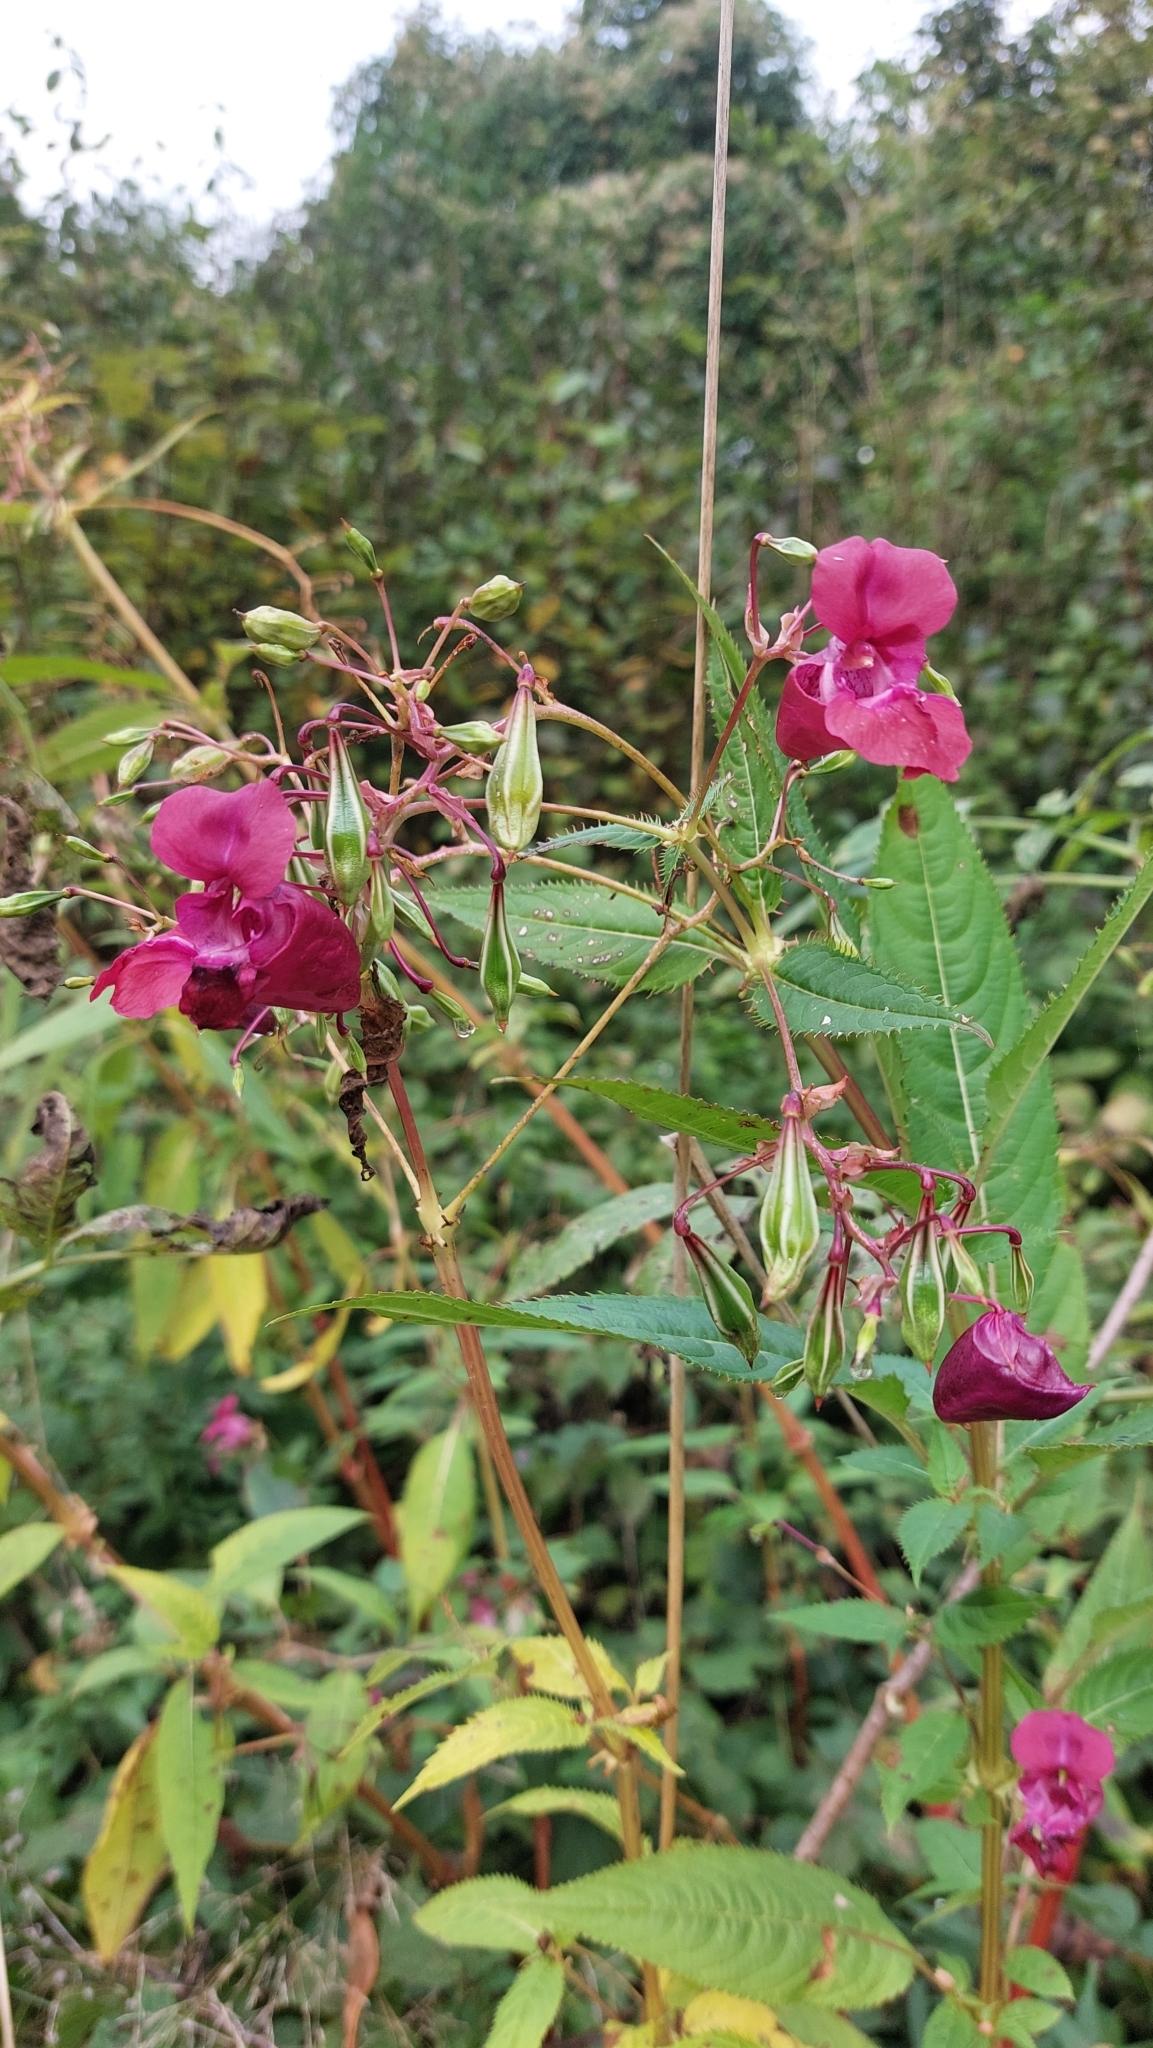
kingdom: Plantae
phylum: Tracheophyta
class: Magnoliopsida
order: Ericales
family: Balsaminaceae
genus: Impatiens
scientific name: Impatiens glandulifera
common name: Himalayan balsam
